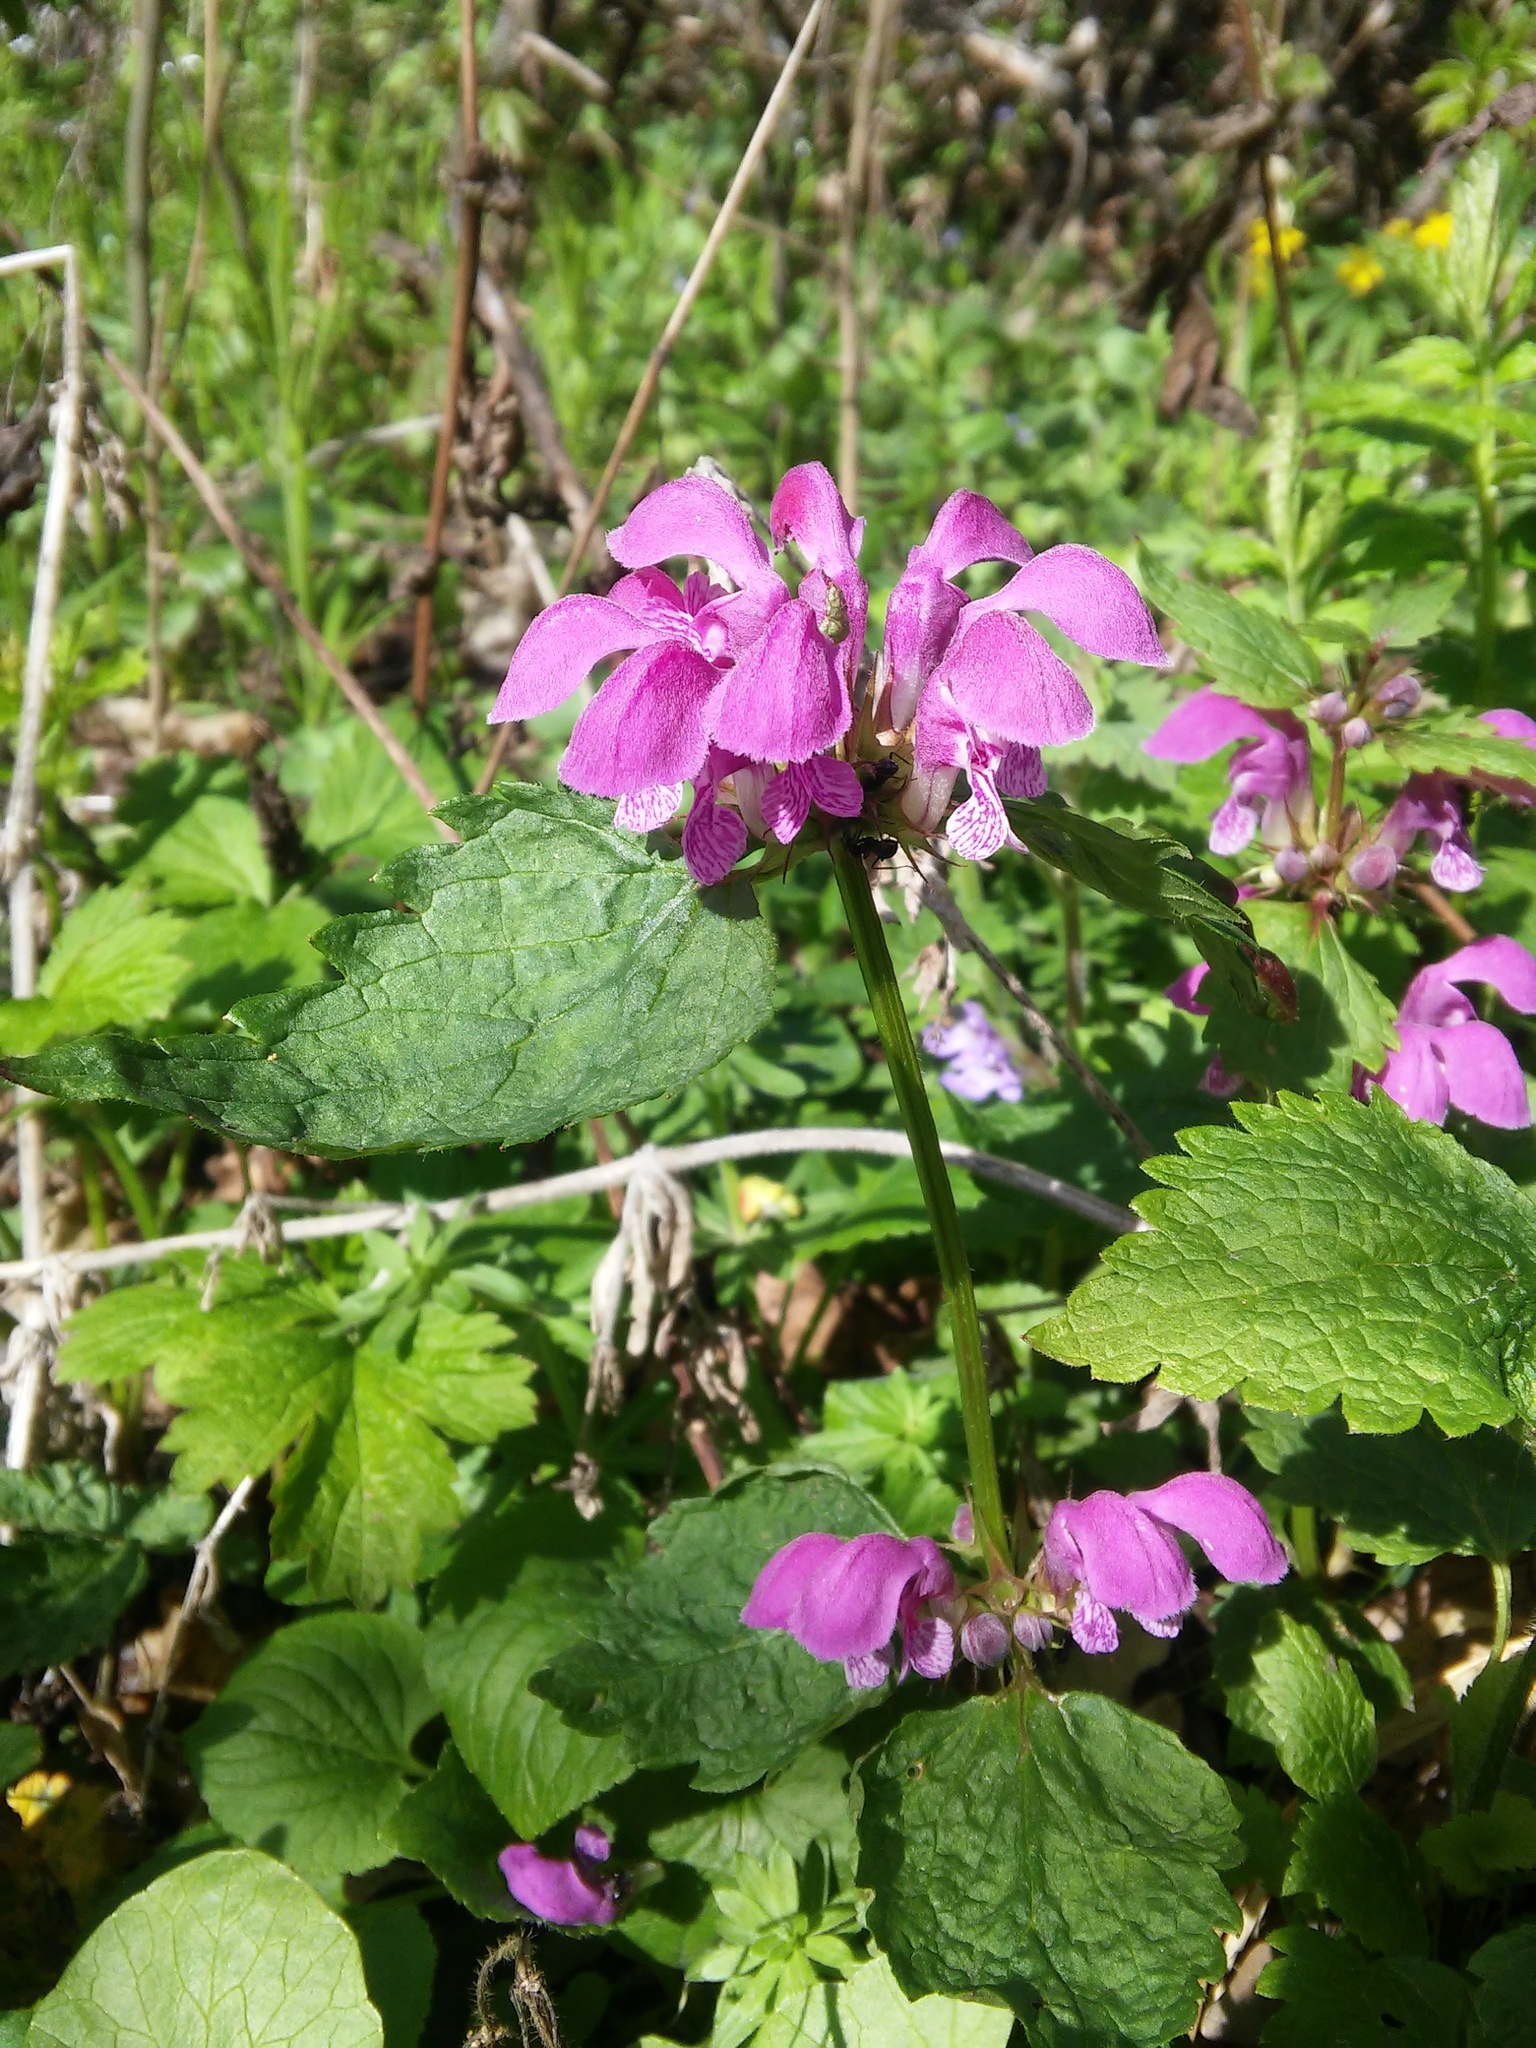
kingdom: Plantae
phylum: Tracheophyta
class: Magnoliopsida
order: Lamiales
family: Lamiaceae
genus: Lamium
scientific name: Lamium maculatum
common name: Spotted dead-nettle
